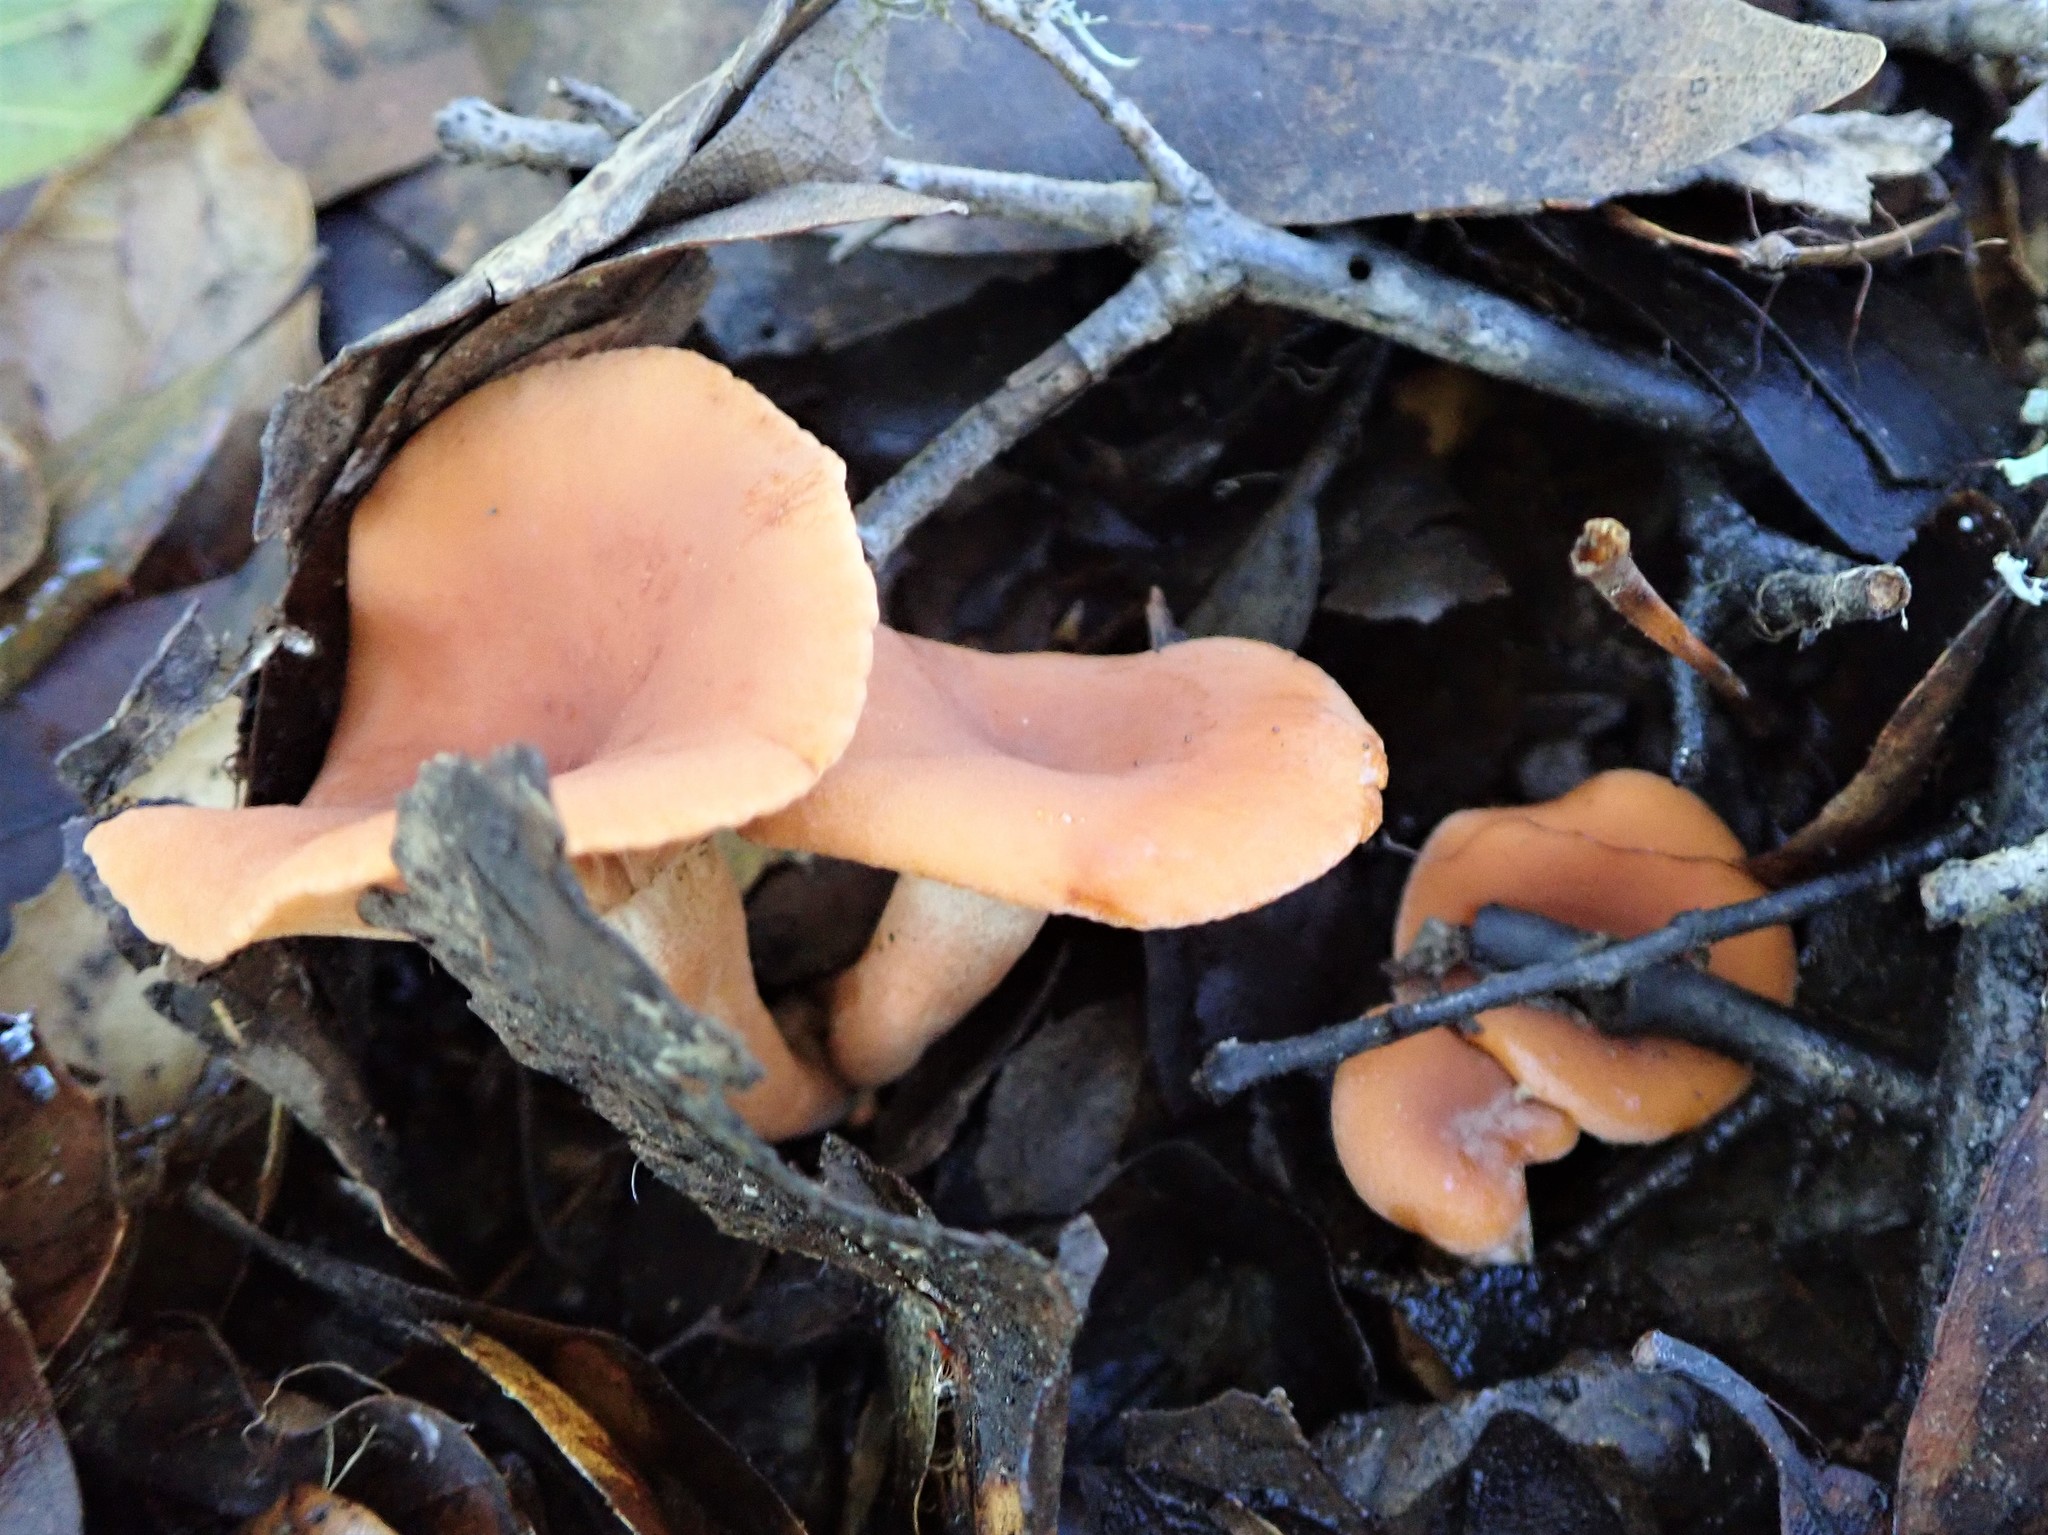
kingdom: Fungi
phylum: Basidiomycota
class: Agaricomycetes
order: Russulales
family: Russulaceae
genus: Lactarius
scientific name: Lactarius rubidus
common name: Candy cap
